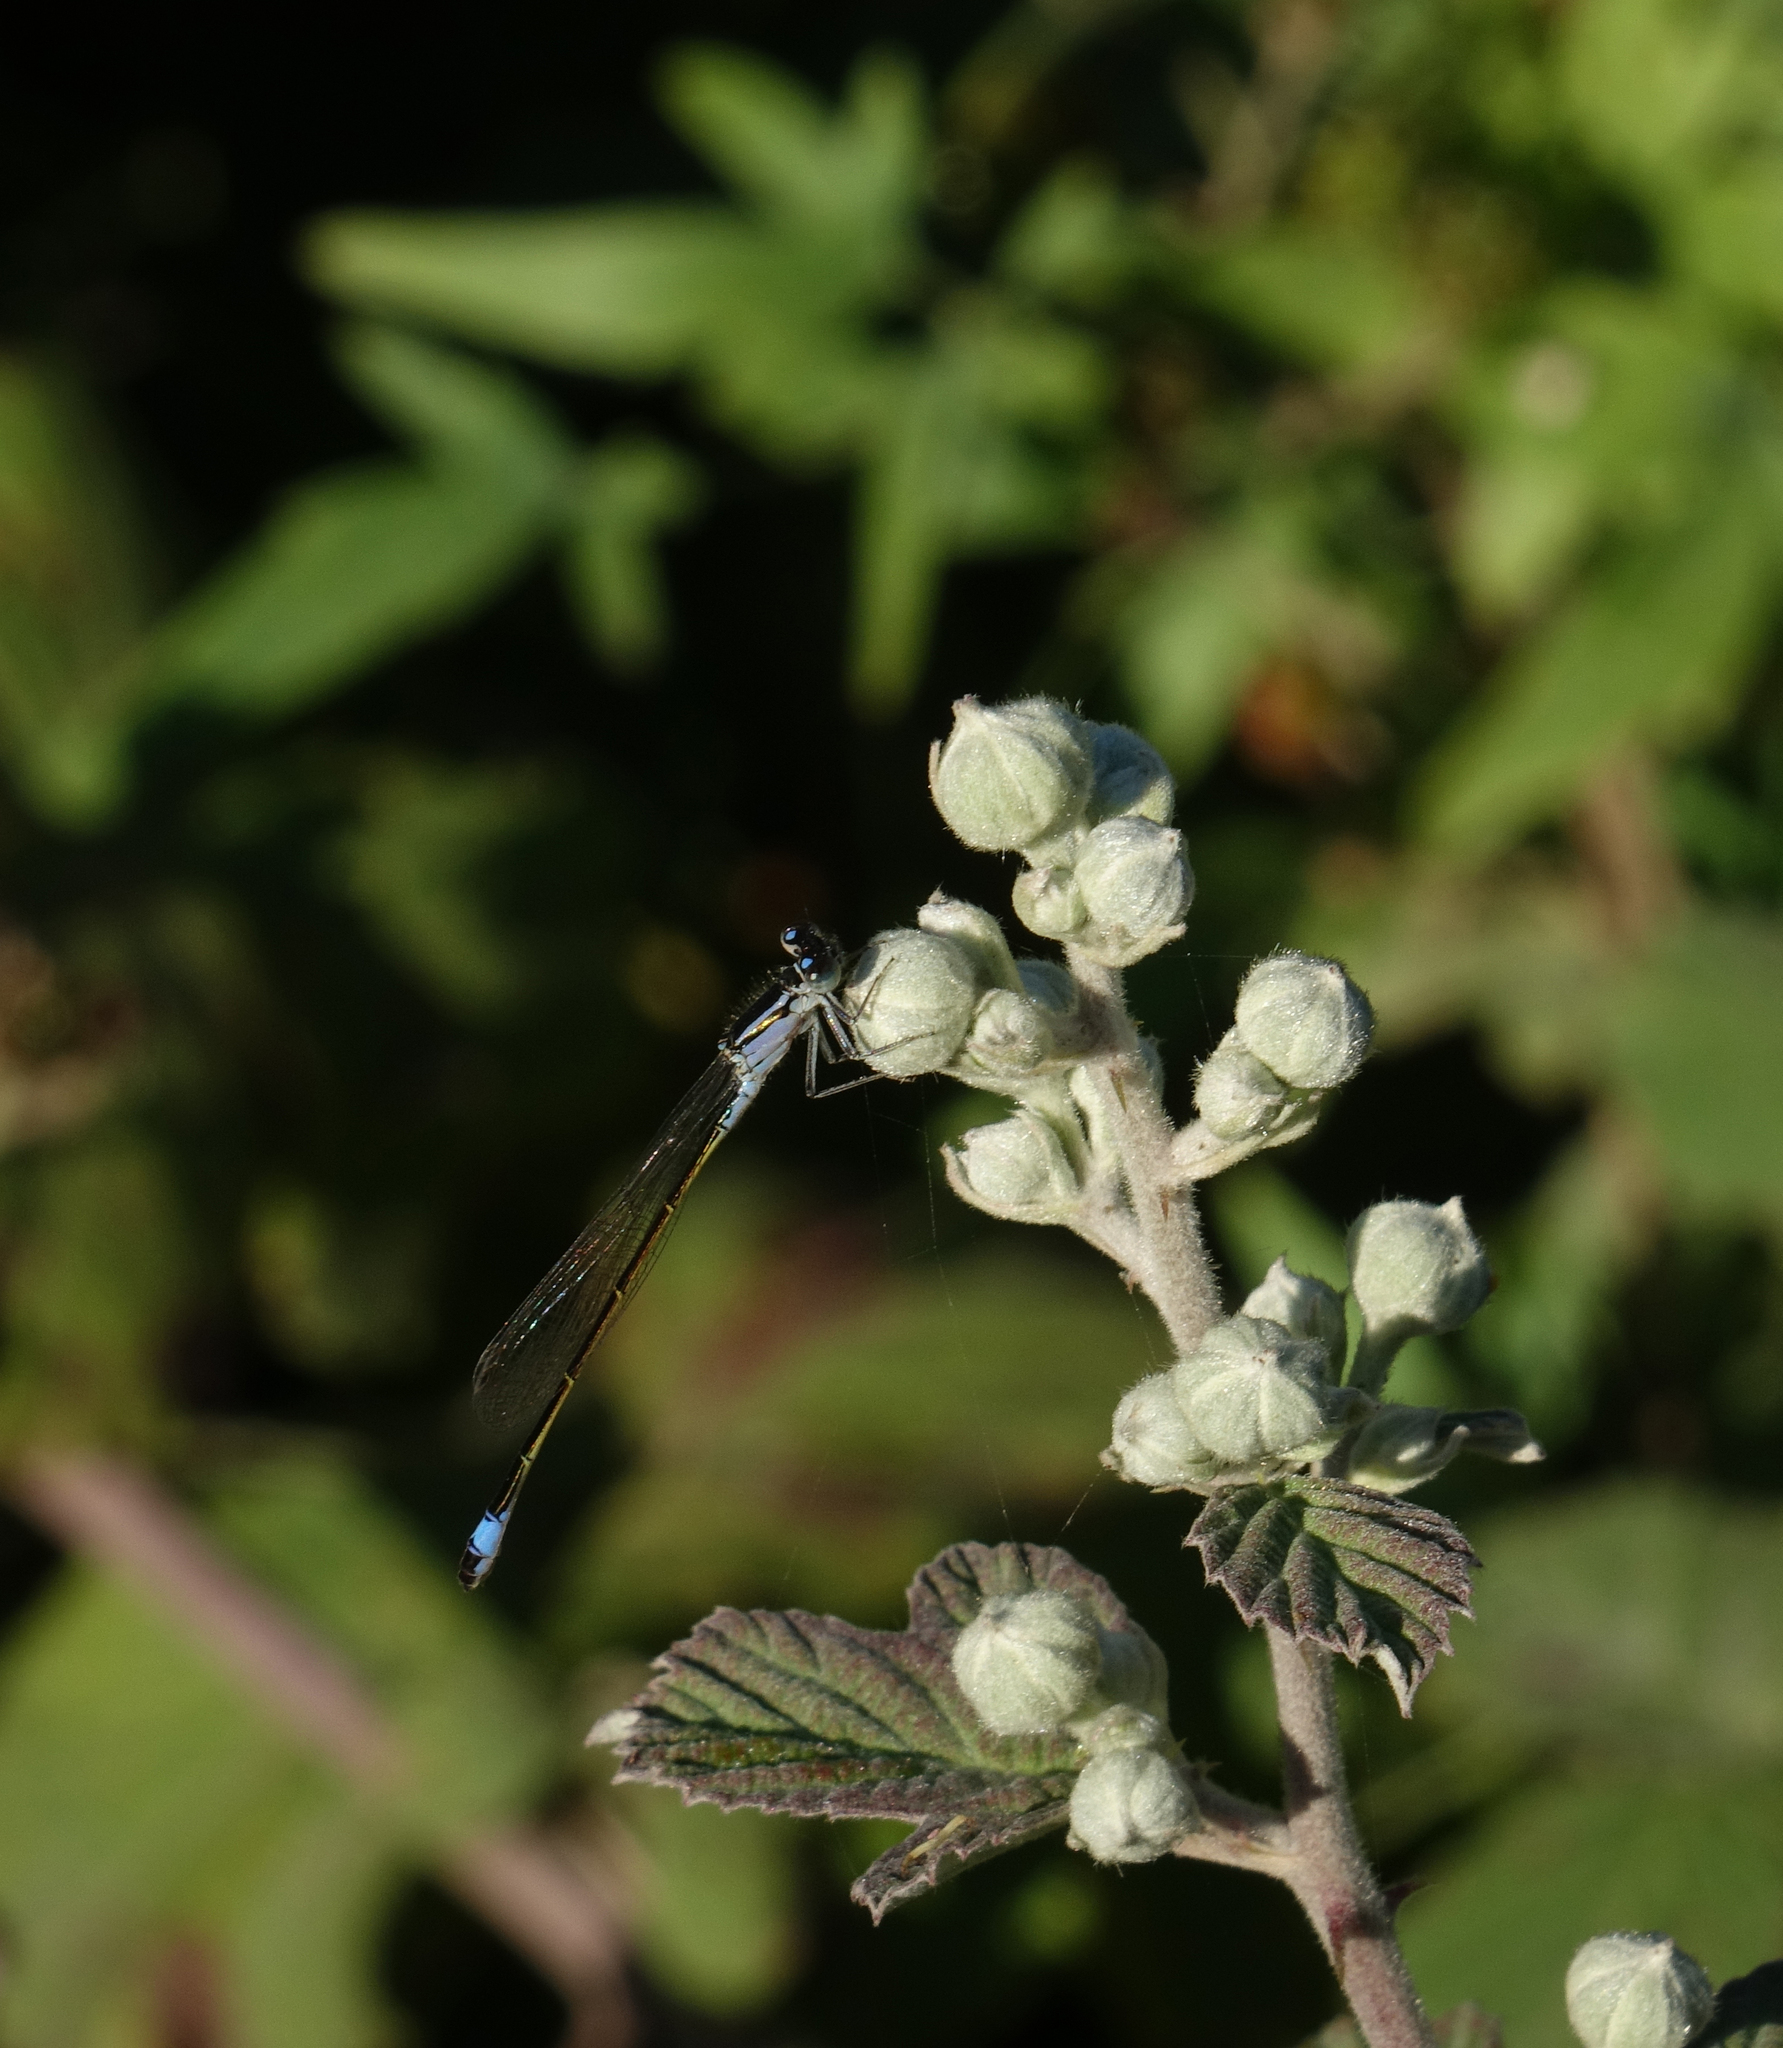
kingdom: Animalia
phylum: Arthropoda
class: Insecta
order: Odonata
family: Coenagrionidae
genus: Ischnura
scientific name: Ischnura elegans
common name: Blue-tailed damselfly
